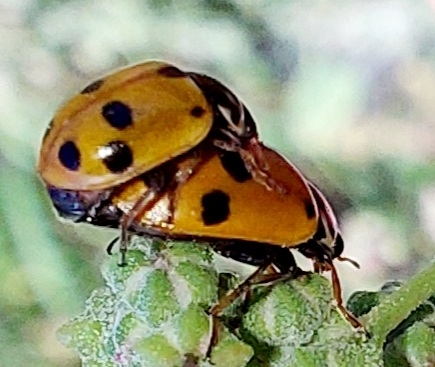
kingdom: Animalia
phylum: Arthropoda
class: Insecta
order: Coleoptera
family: Coccinellidae
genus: Hippodamia
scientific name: Hippodamia variegata
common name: Ladybird beetle
